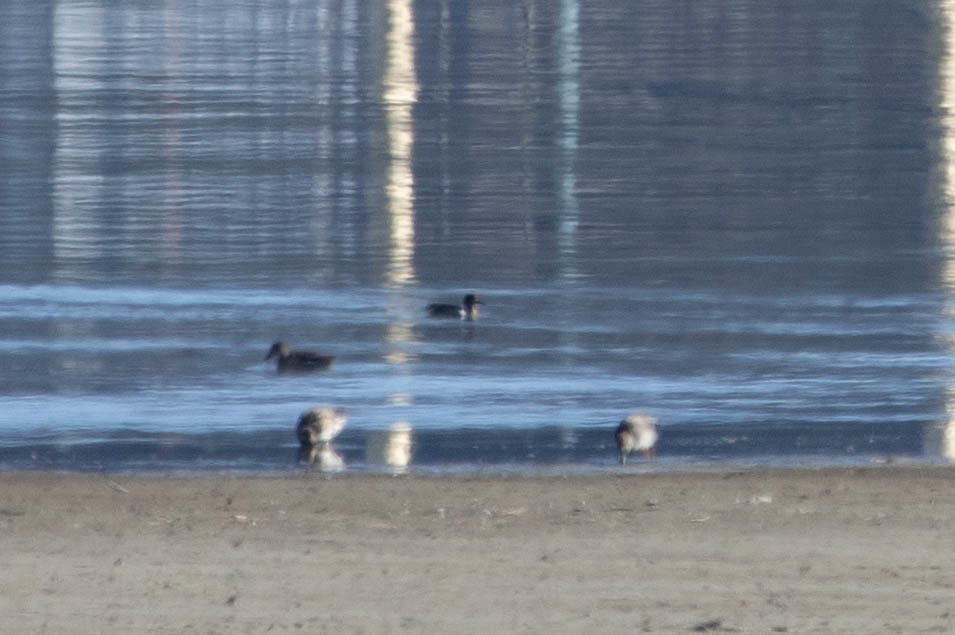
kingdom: Animalia
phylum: Chordata
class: Aves
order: Anseriformes
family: Anatidae
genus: Anas
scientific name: Anas crecca
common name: Eurasian teal
